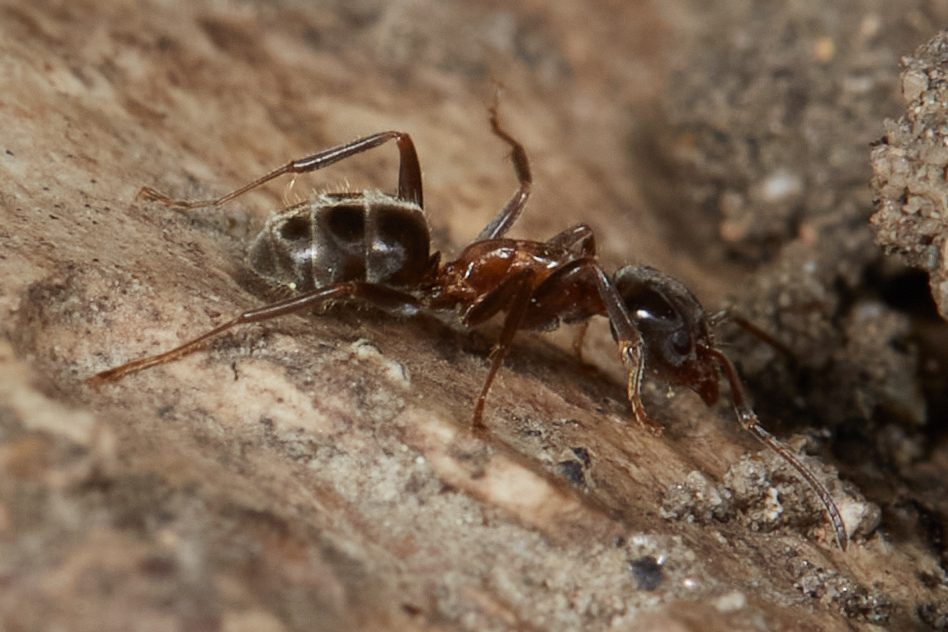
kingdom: Animalia
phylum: Arthropoda
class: Insecta
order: Hymenoptera
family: Formicidae
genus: Liometopum
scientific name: Liometopum occidentale
